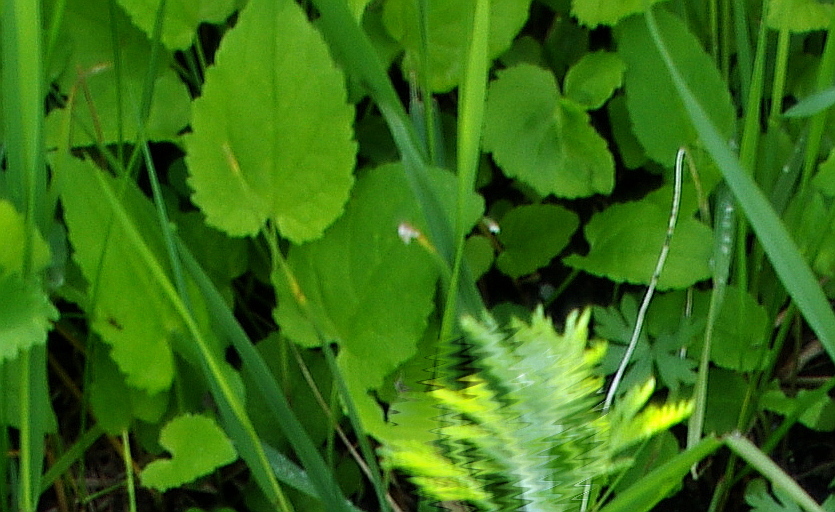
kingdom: Plantae
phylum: Tracheophyta
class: Magnoliopsida
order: Asterales
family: Campanulaceae
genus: Campanula
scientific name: Campanula rapunculoides
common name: Creeping bellflower
